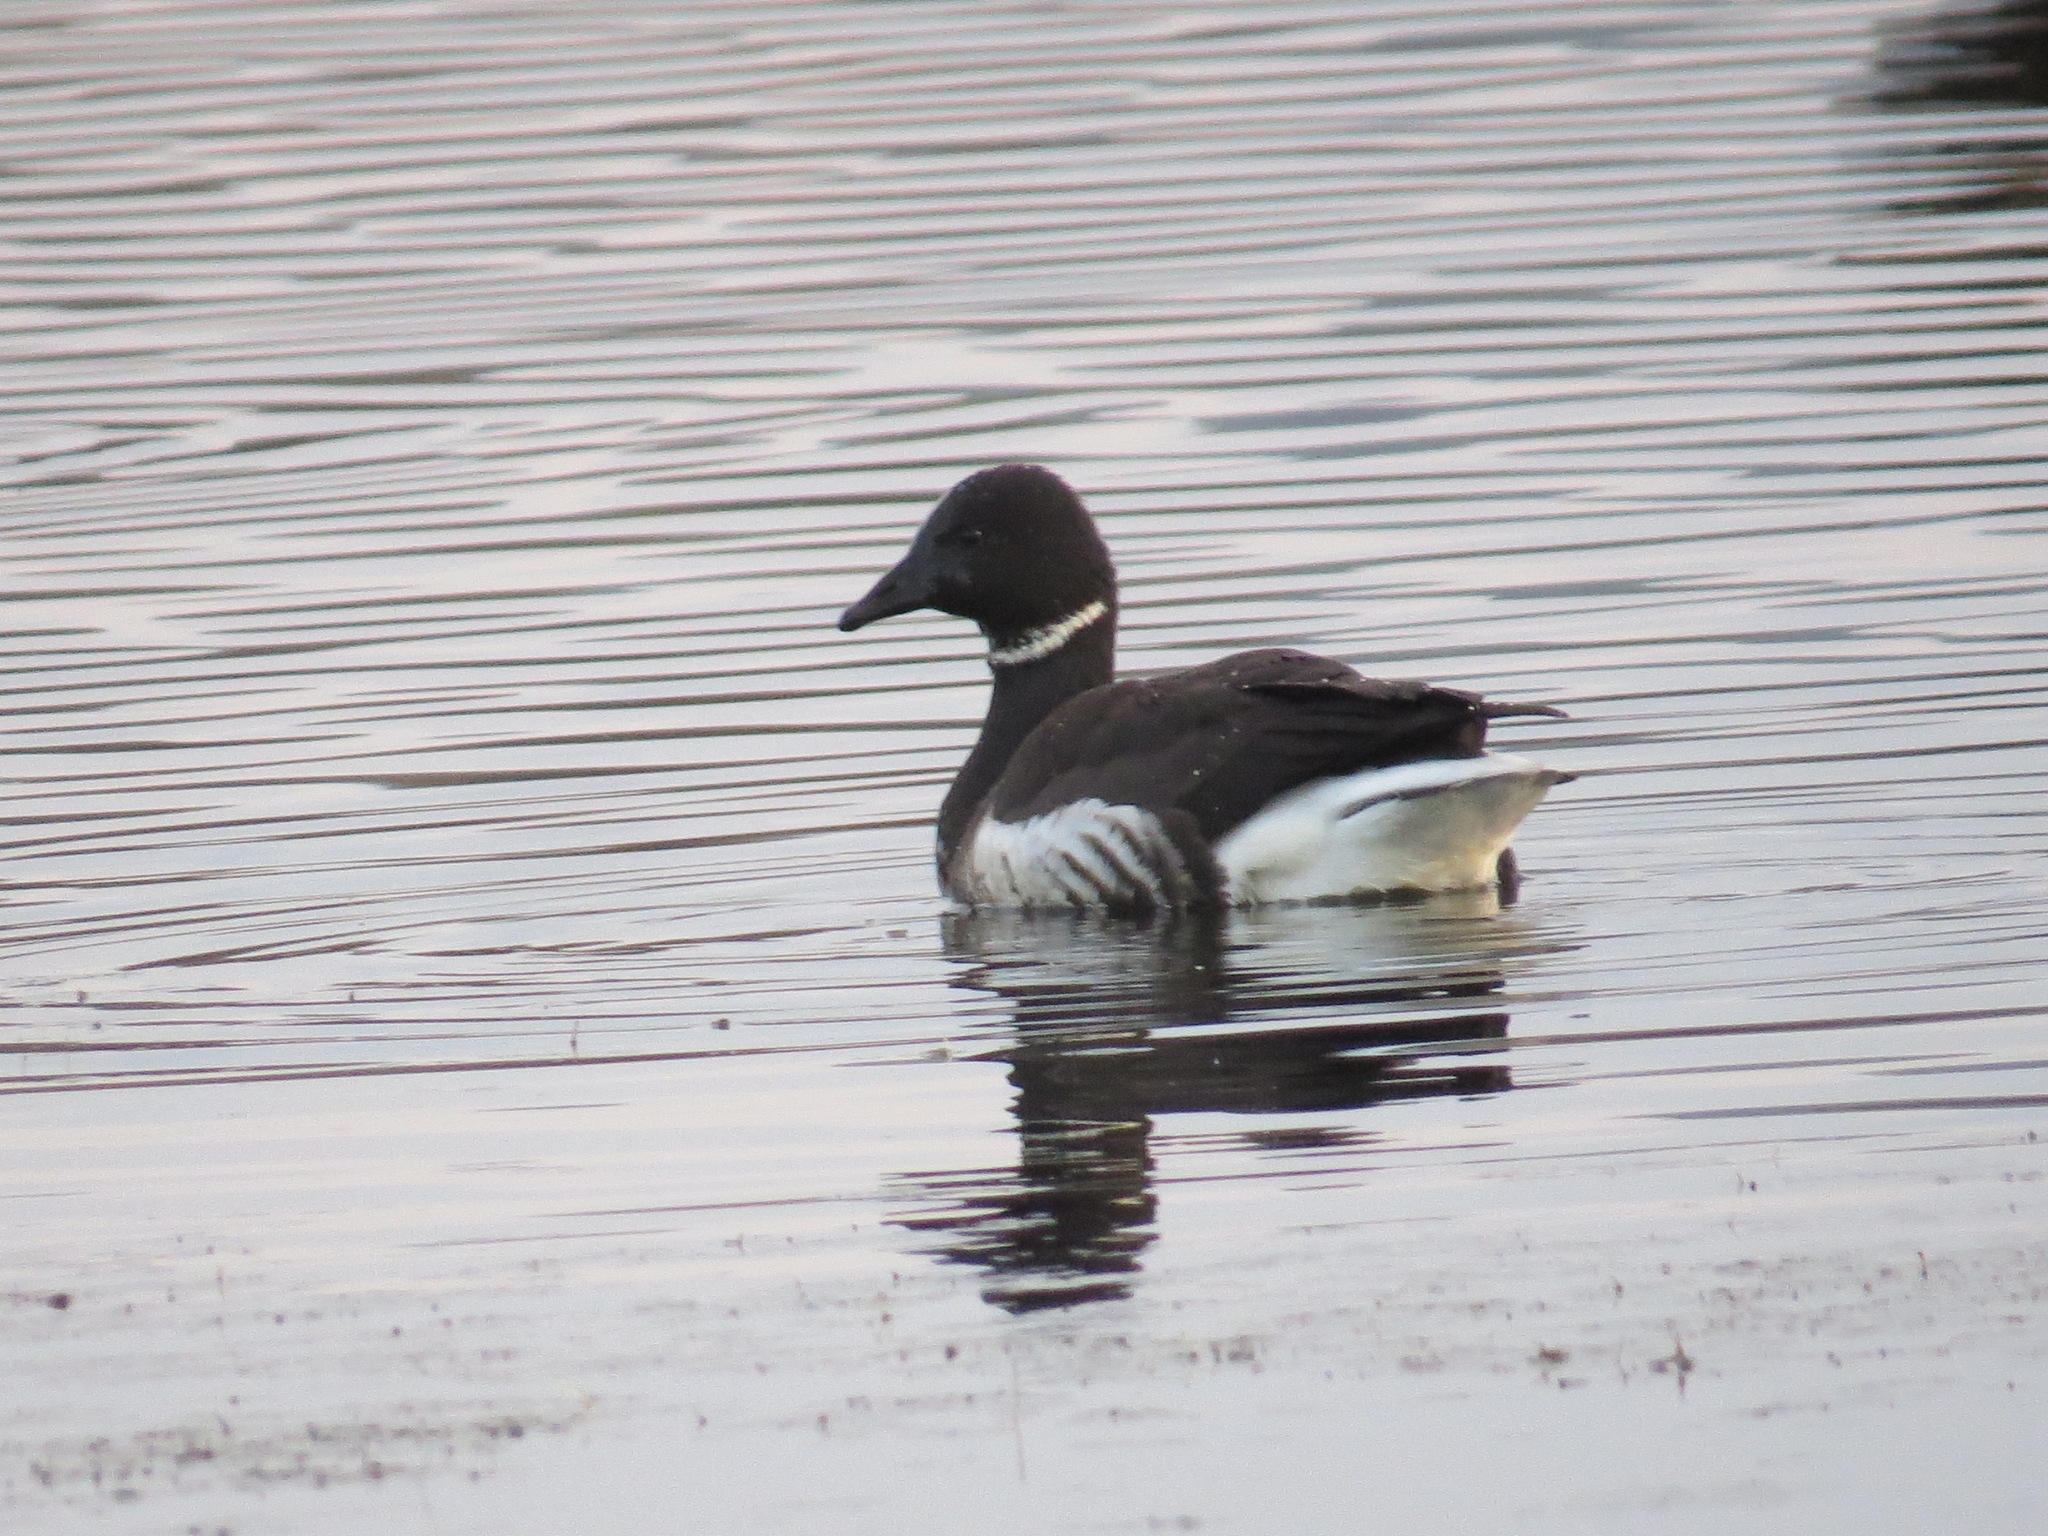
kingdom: Animalia
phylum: Chordata
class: Aves
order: Anseriformes
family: Anatidae
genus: Branta
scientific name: Branta bernicla
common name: Brant goose
